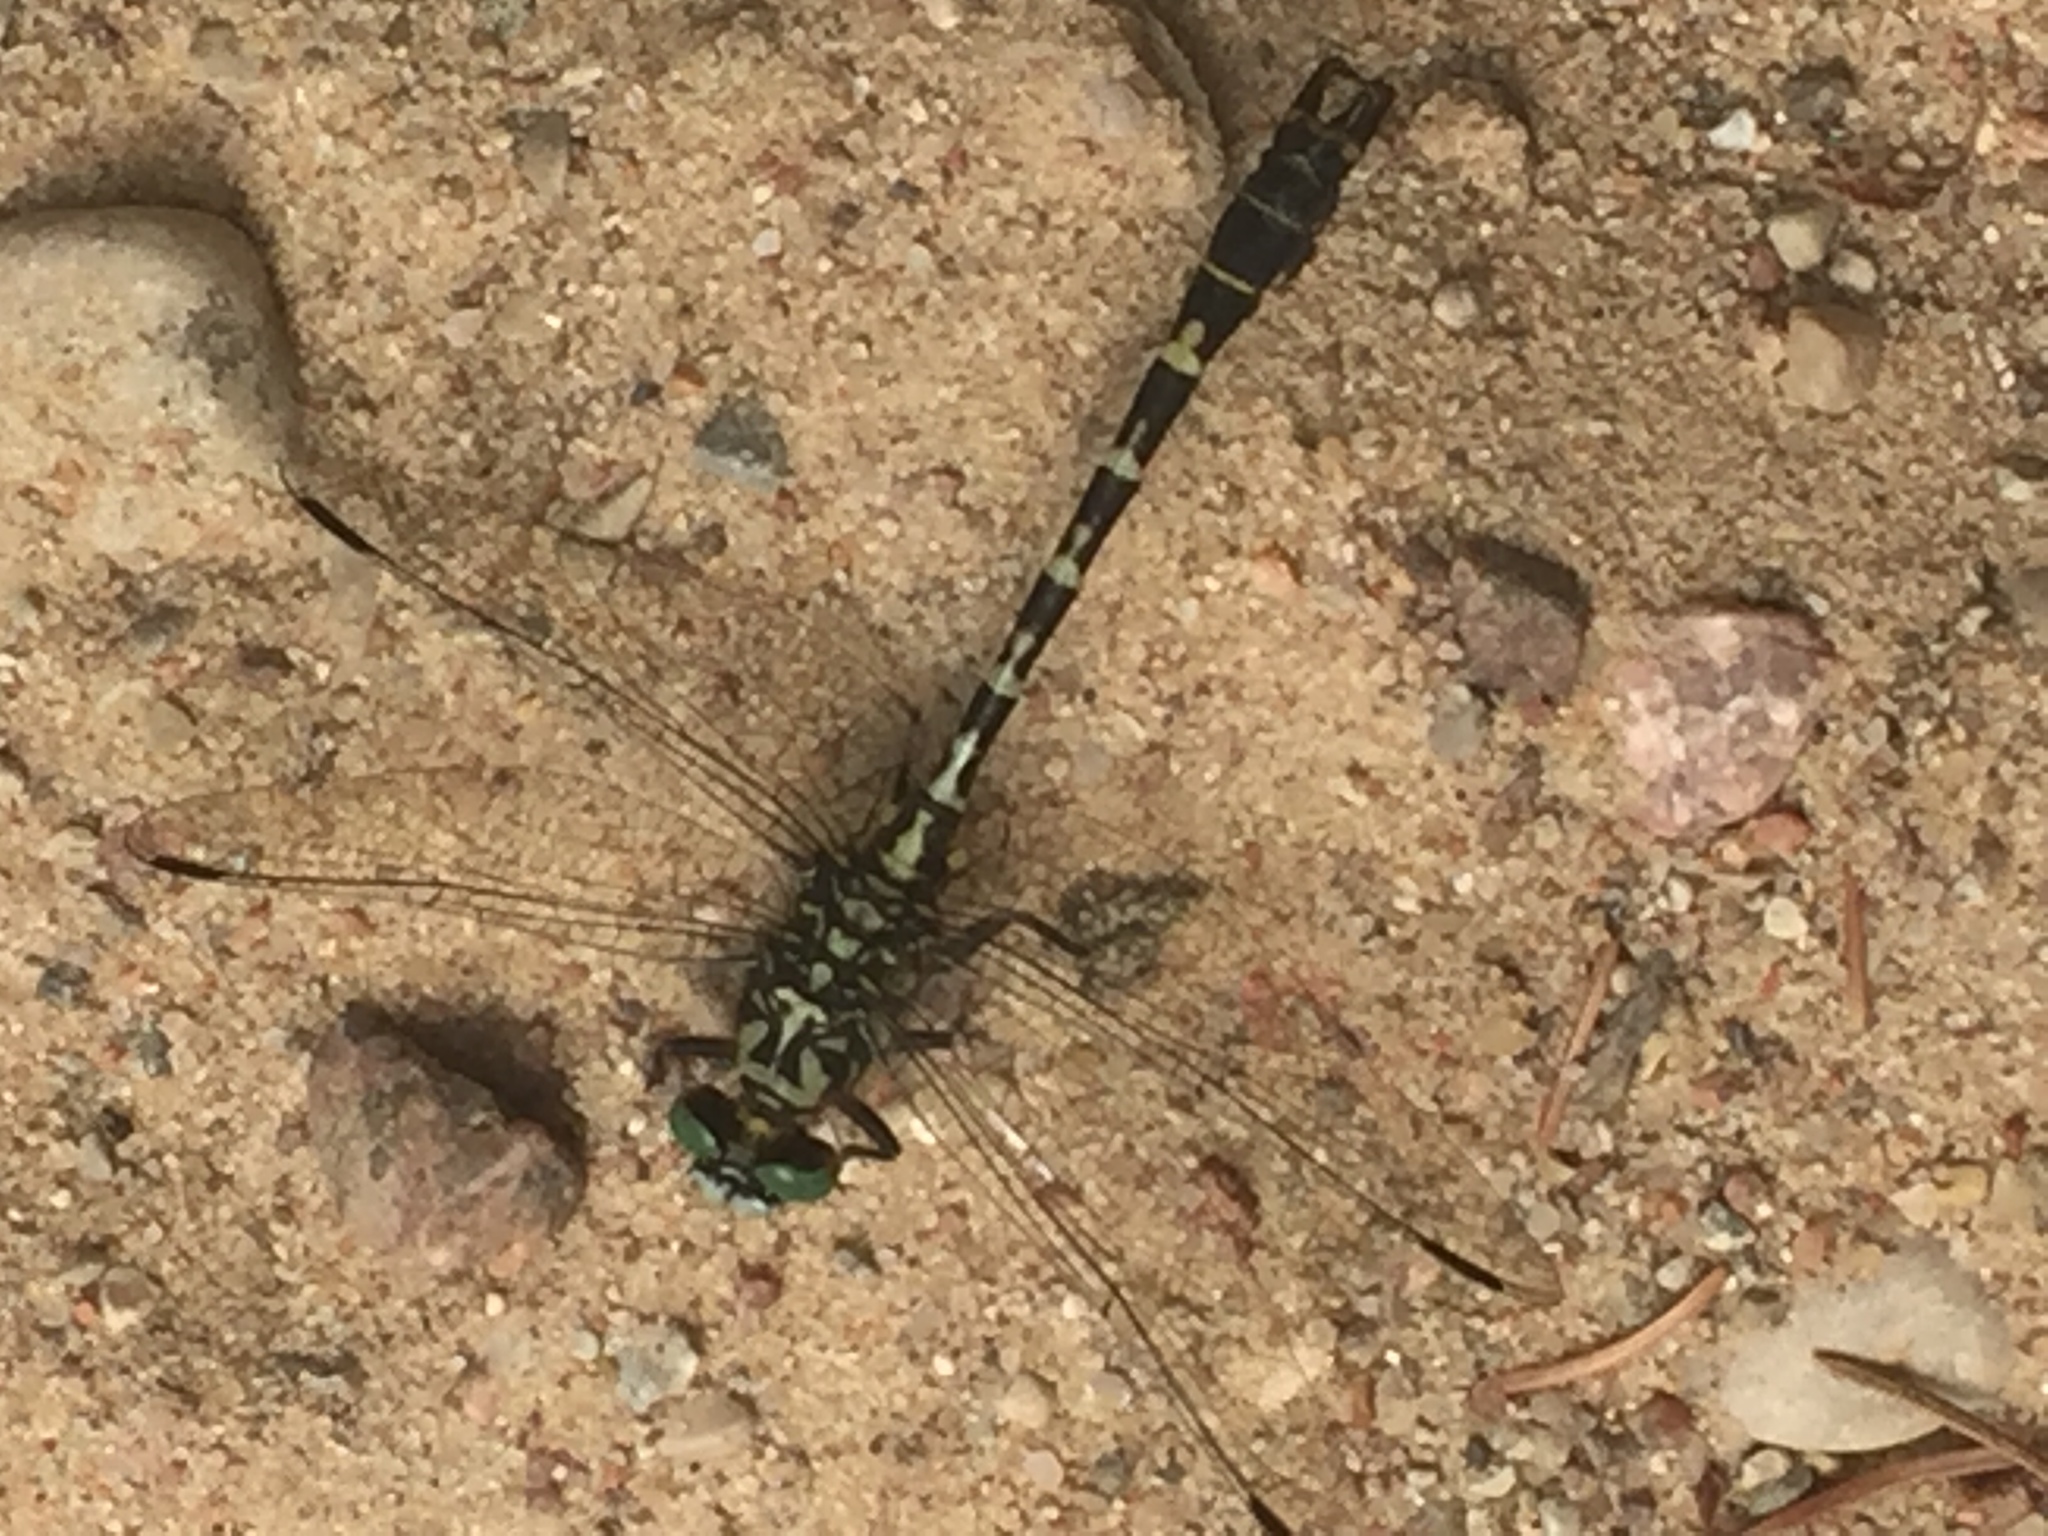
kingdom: Animalia
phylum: Arthropoda
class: Insecta
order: Odonata
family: Gomphidae
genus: Onychogomphus
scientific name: Onychogomphus forcipatus
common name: Small pincertail
